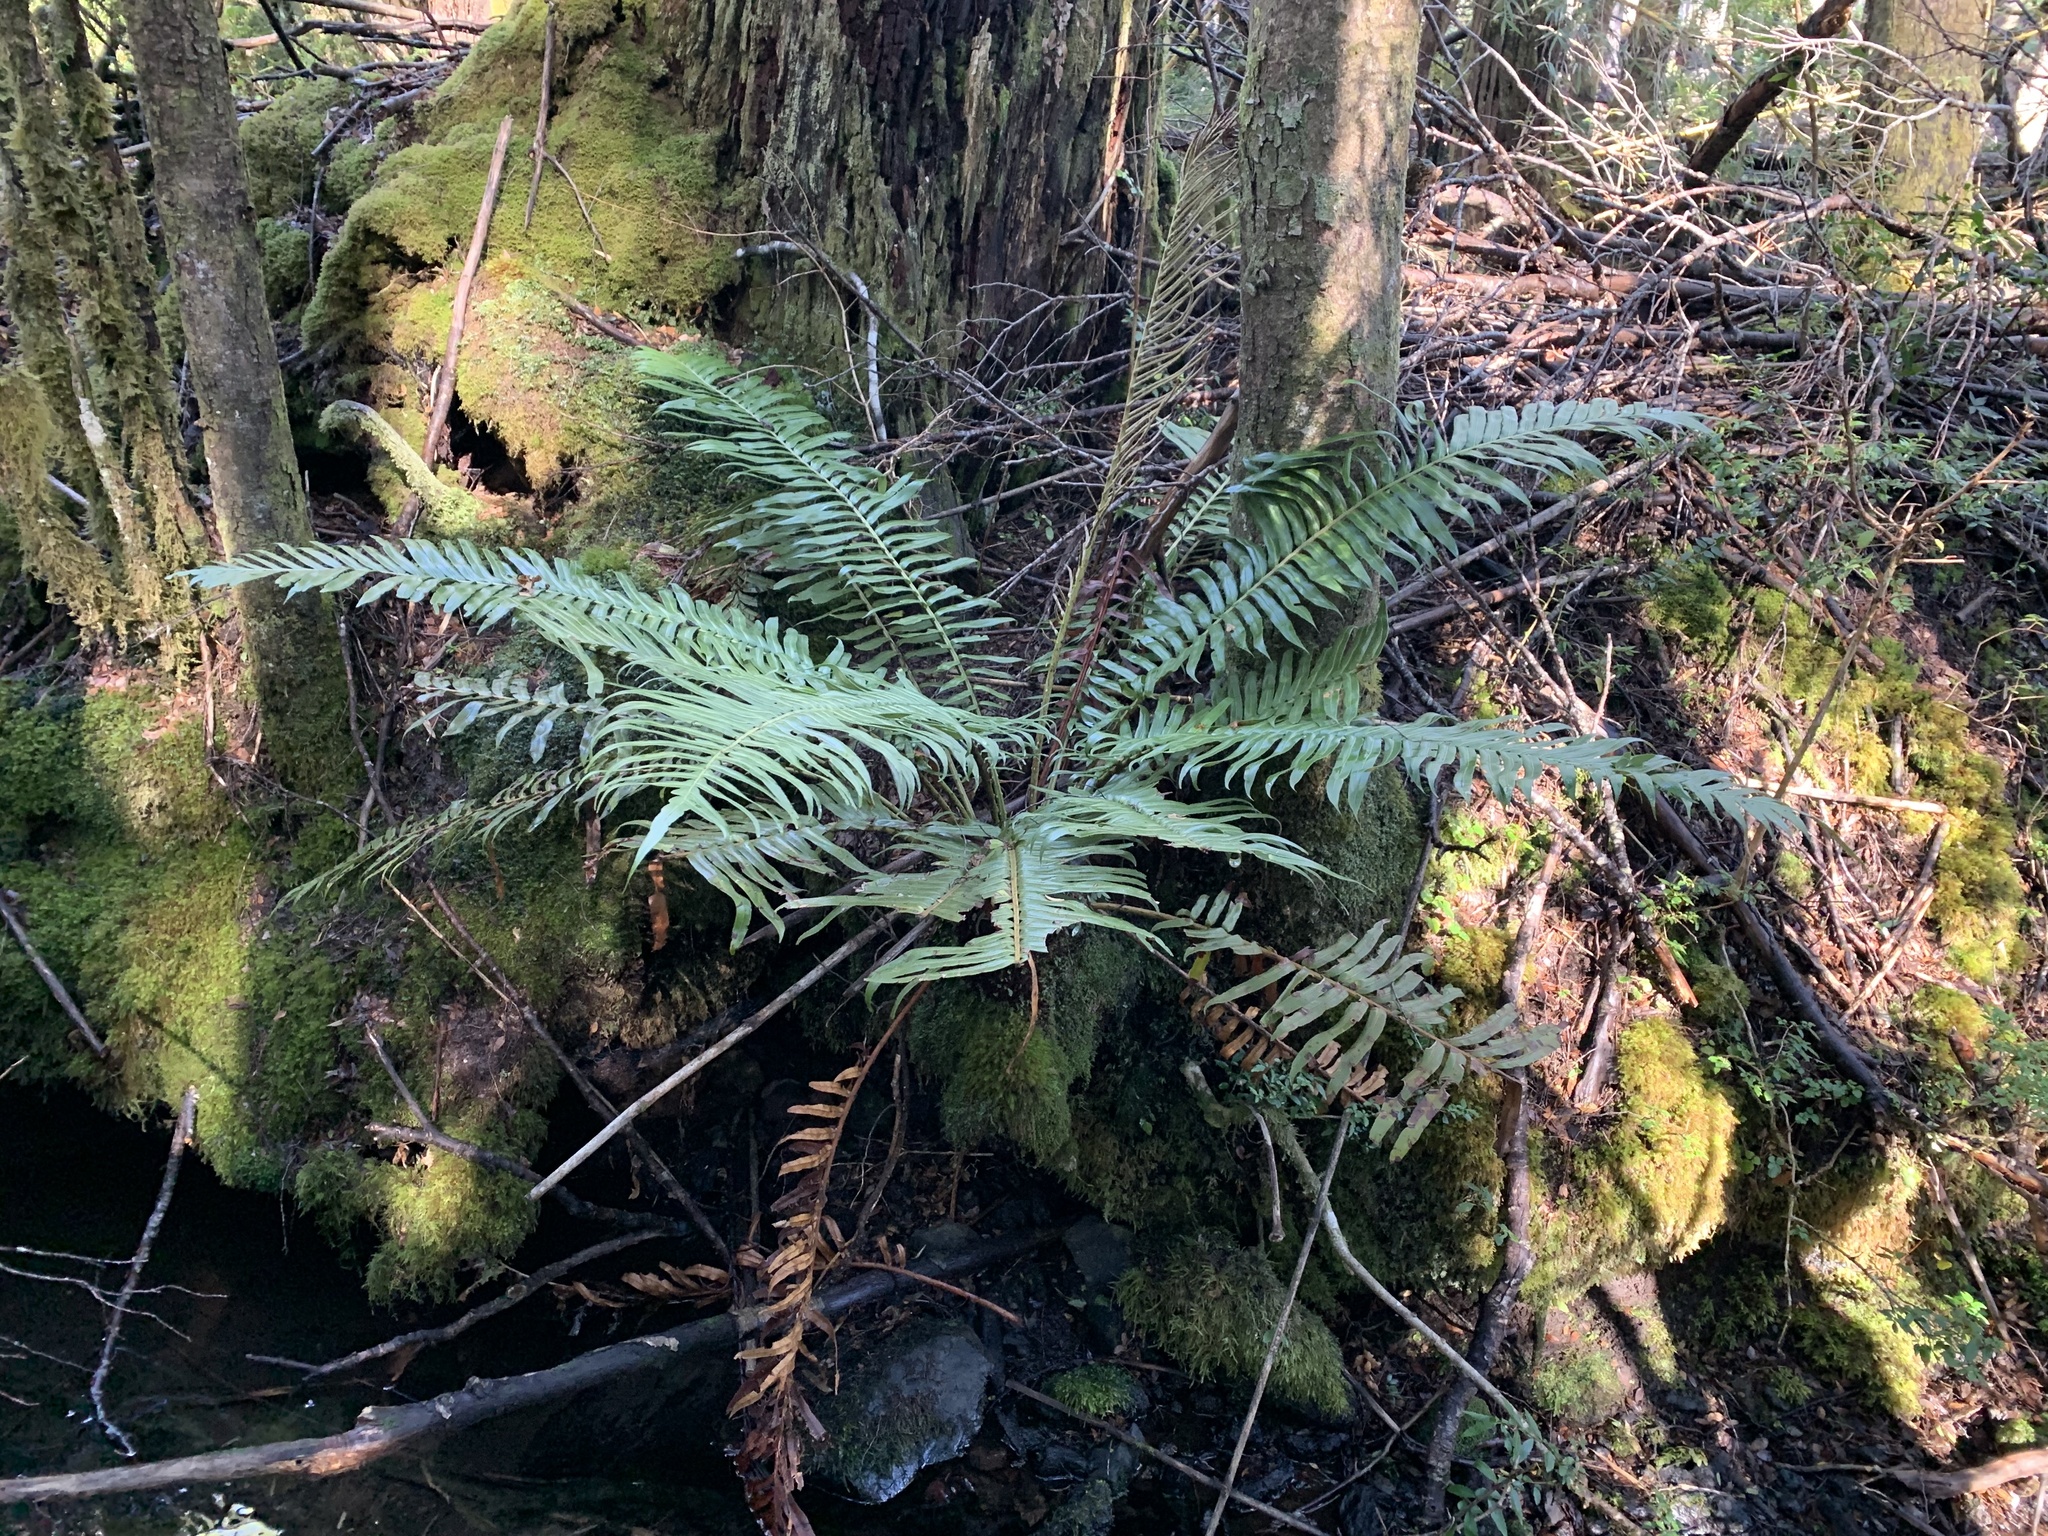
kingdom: Plantae
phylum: Tracheophyta
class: Polypodiopsida
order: Polypodiales
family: Blechnaceae
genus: Lomariocycas
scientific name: Lomariocycas magellanica
